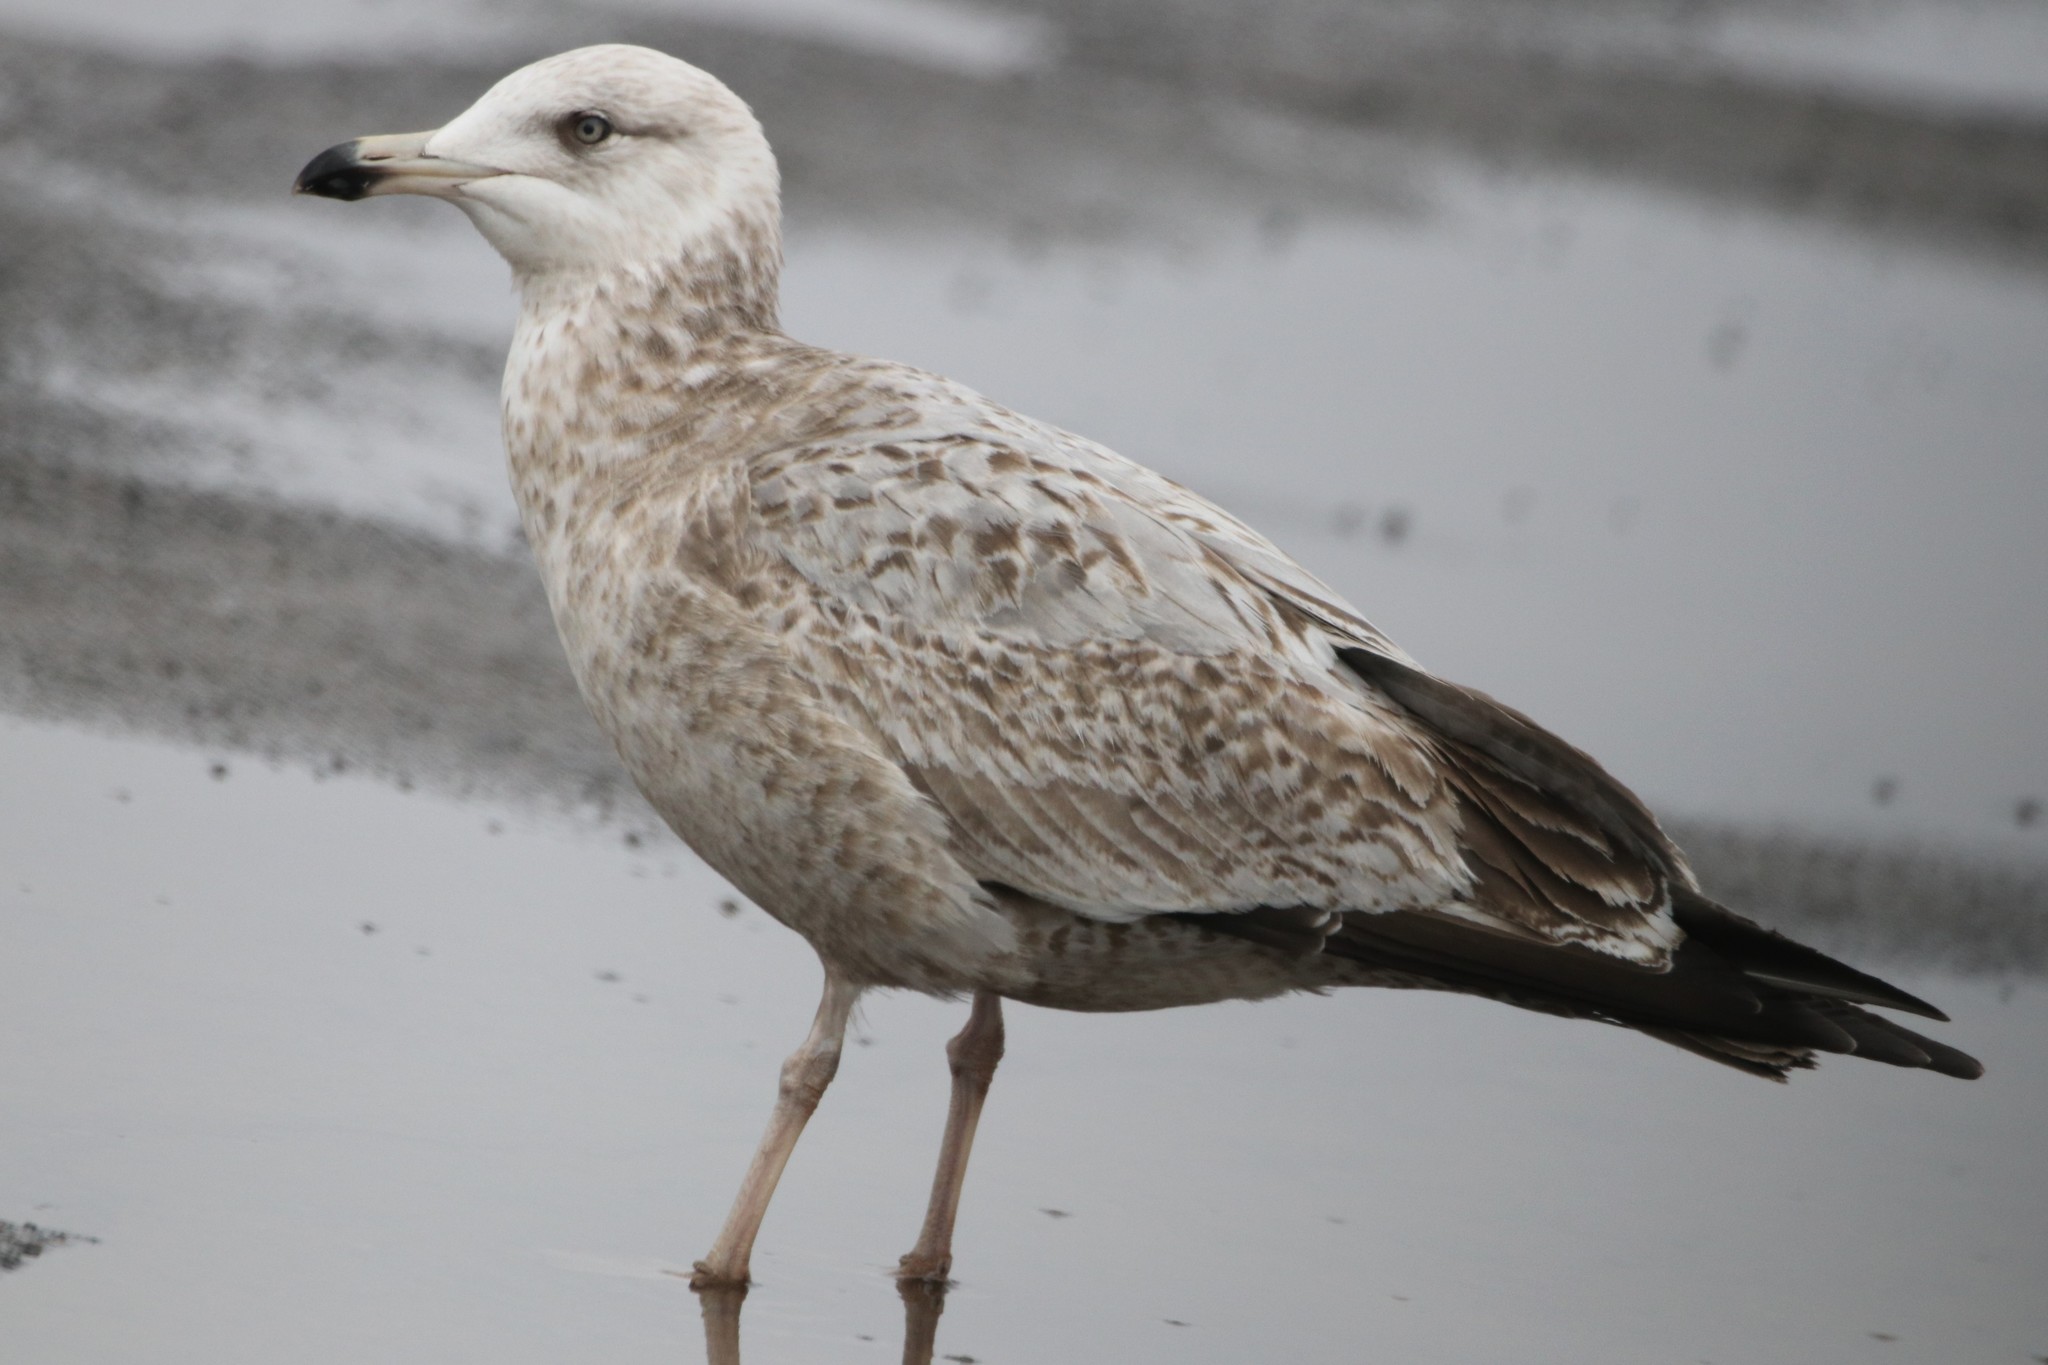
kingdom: Animalia
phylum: Chordata
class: Aves
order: Charadriiformes
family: Laridae
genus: Larus
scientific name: Larus argentatus
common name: Herring gull
